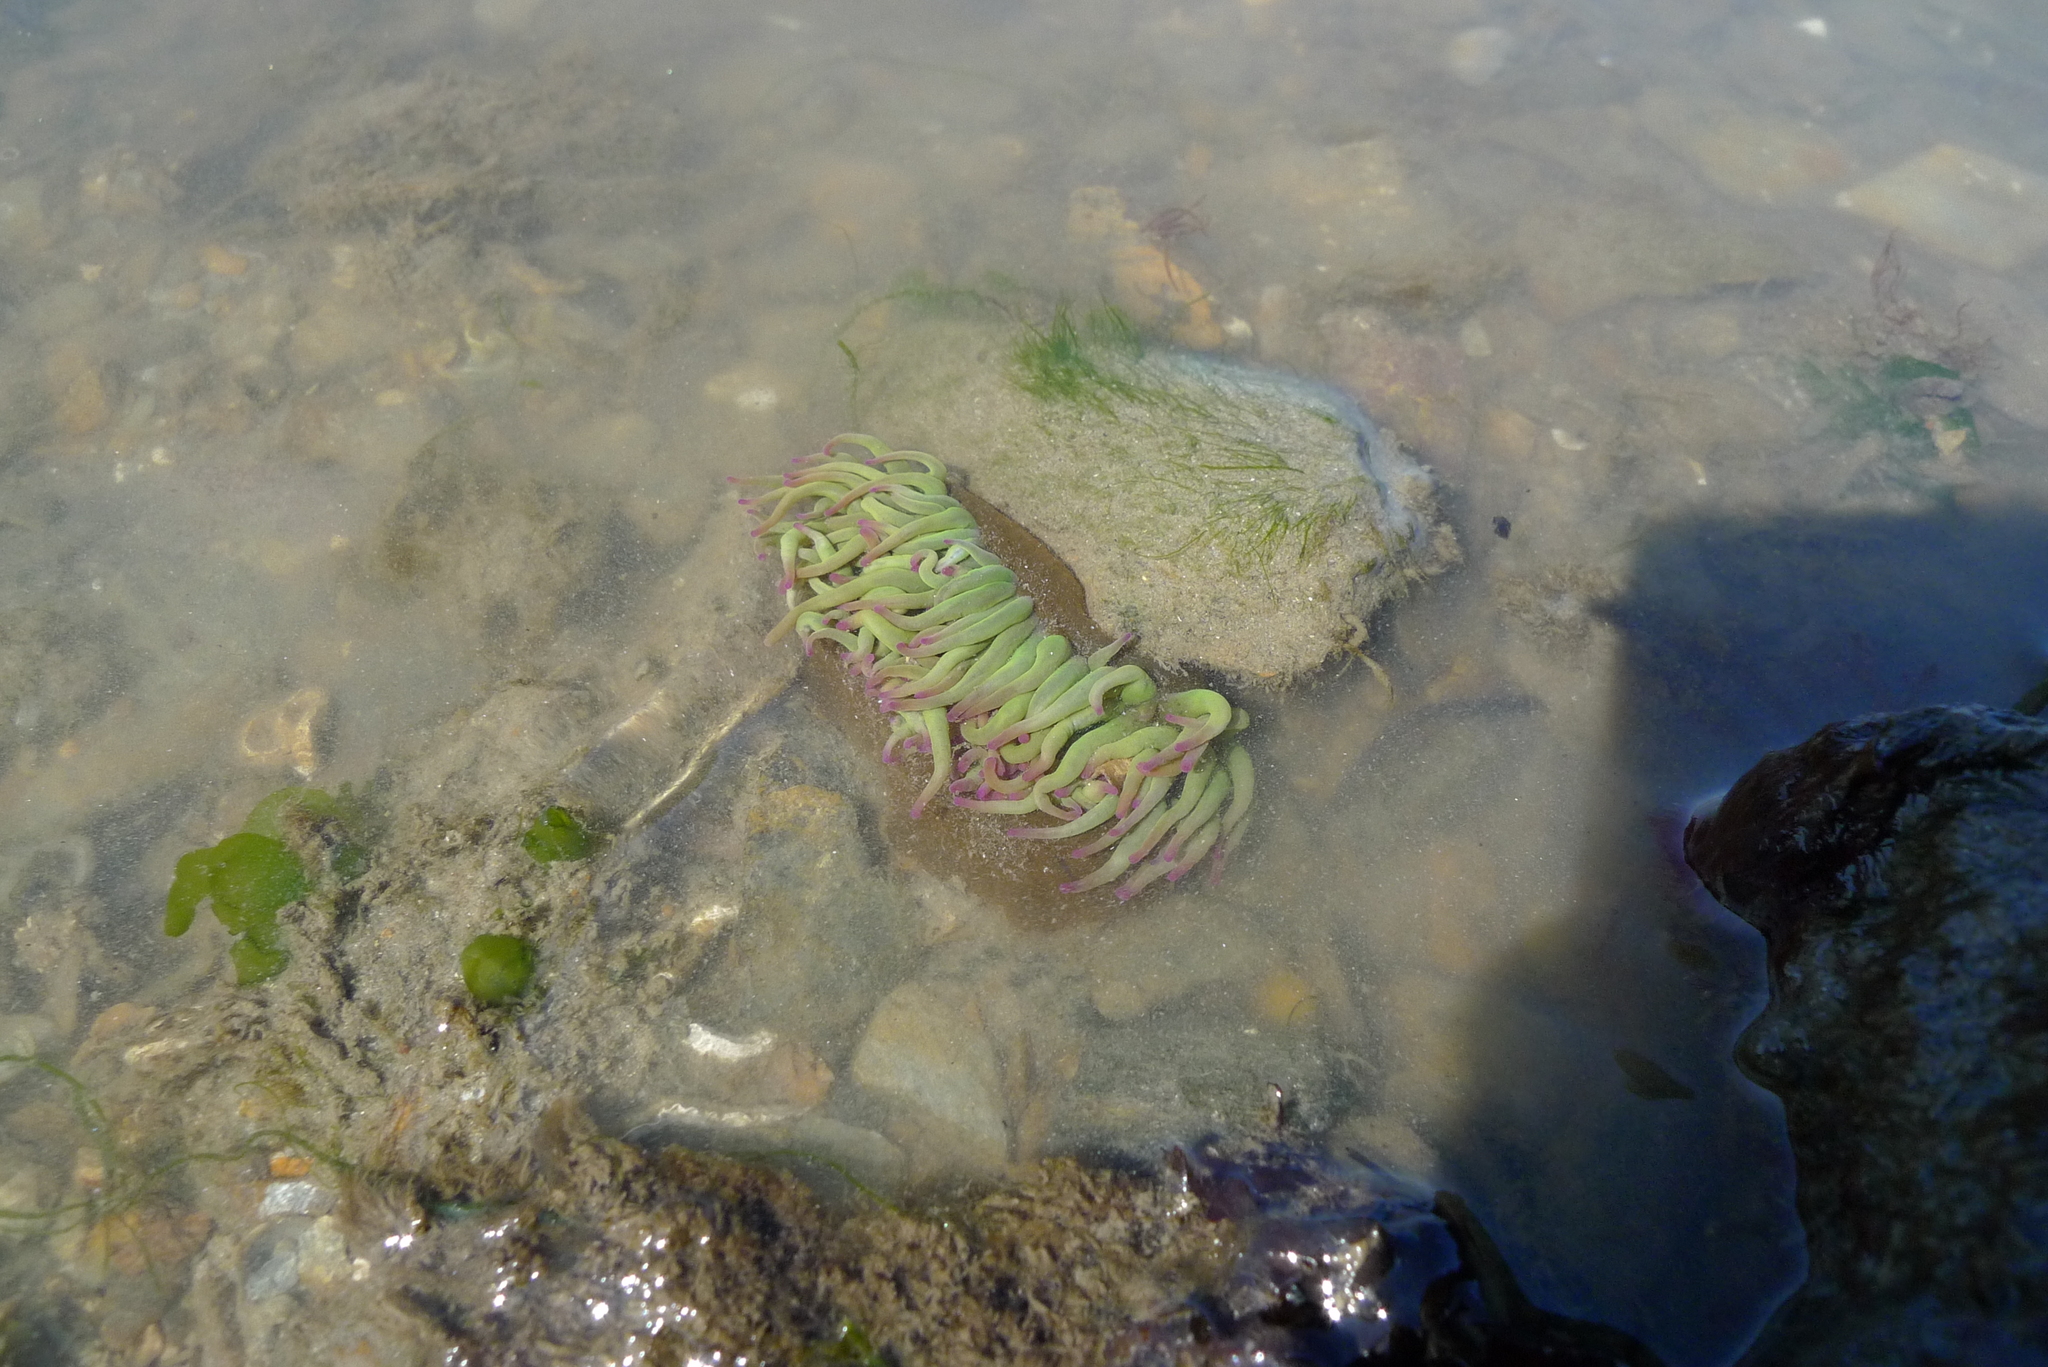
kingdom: Animalia
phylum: Cnidaria
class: Anthozoa
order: Actiniaria
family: Actiniidae
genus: Anemonia
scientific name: Anemonia viridis
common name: Snakelocks anemone
